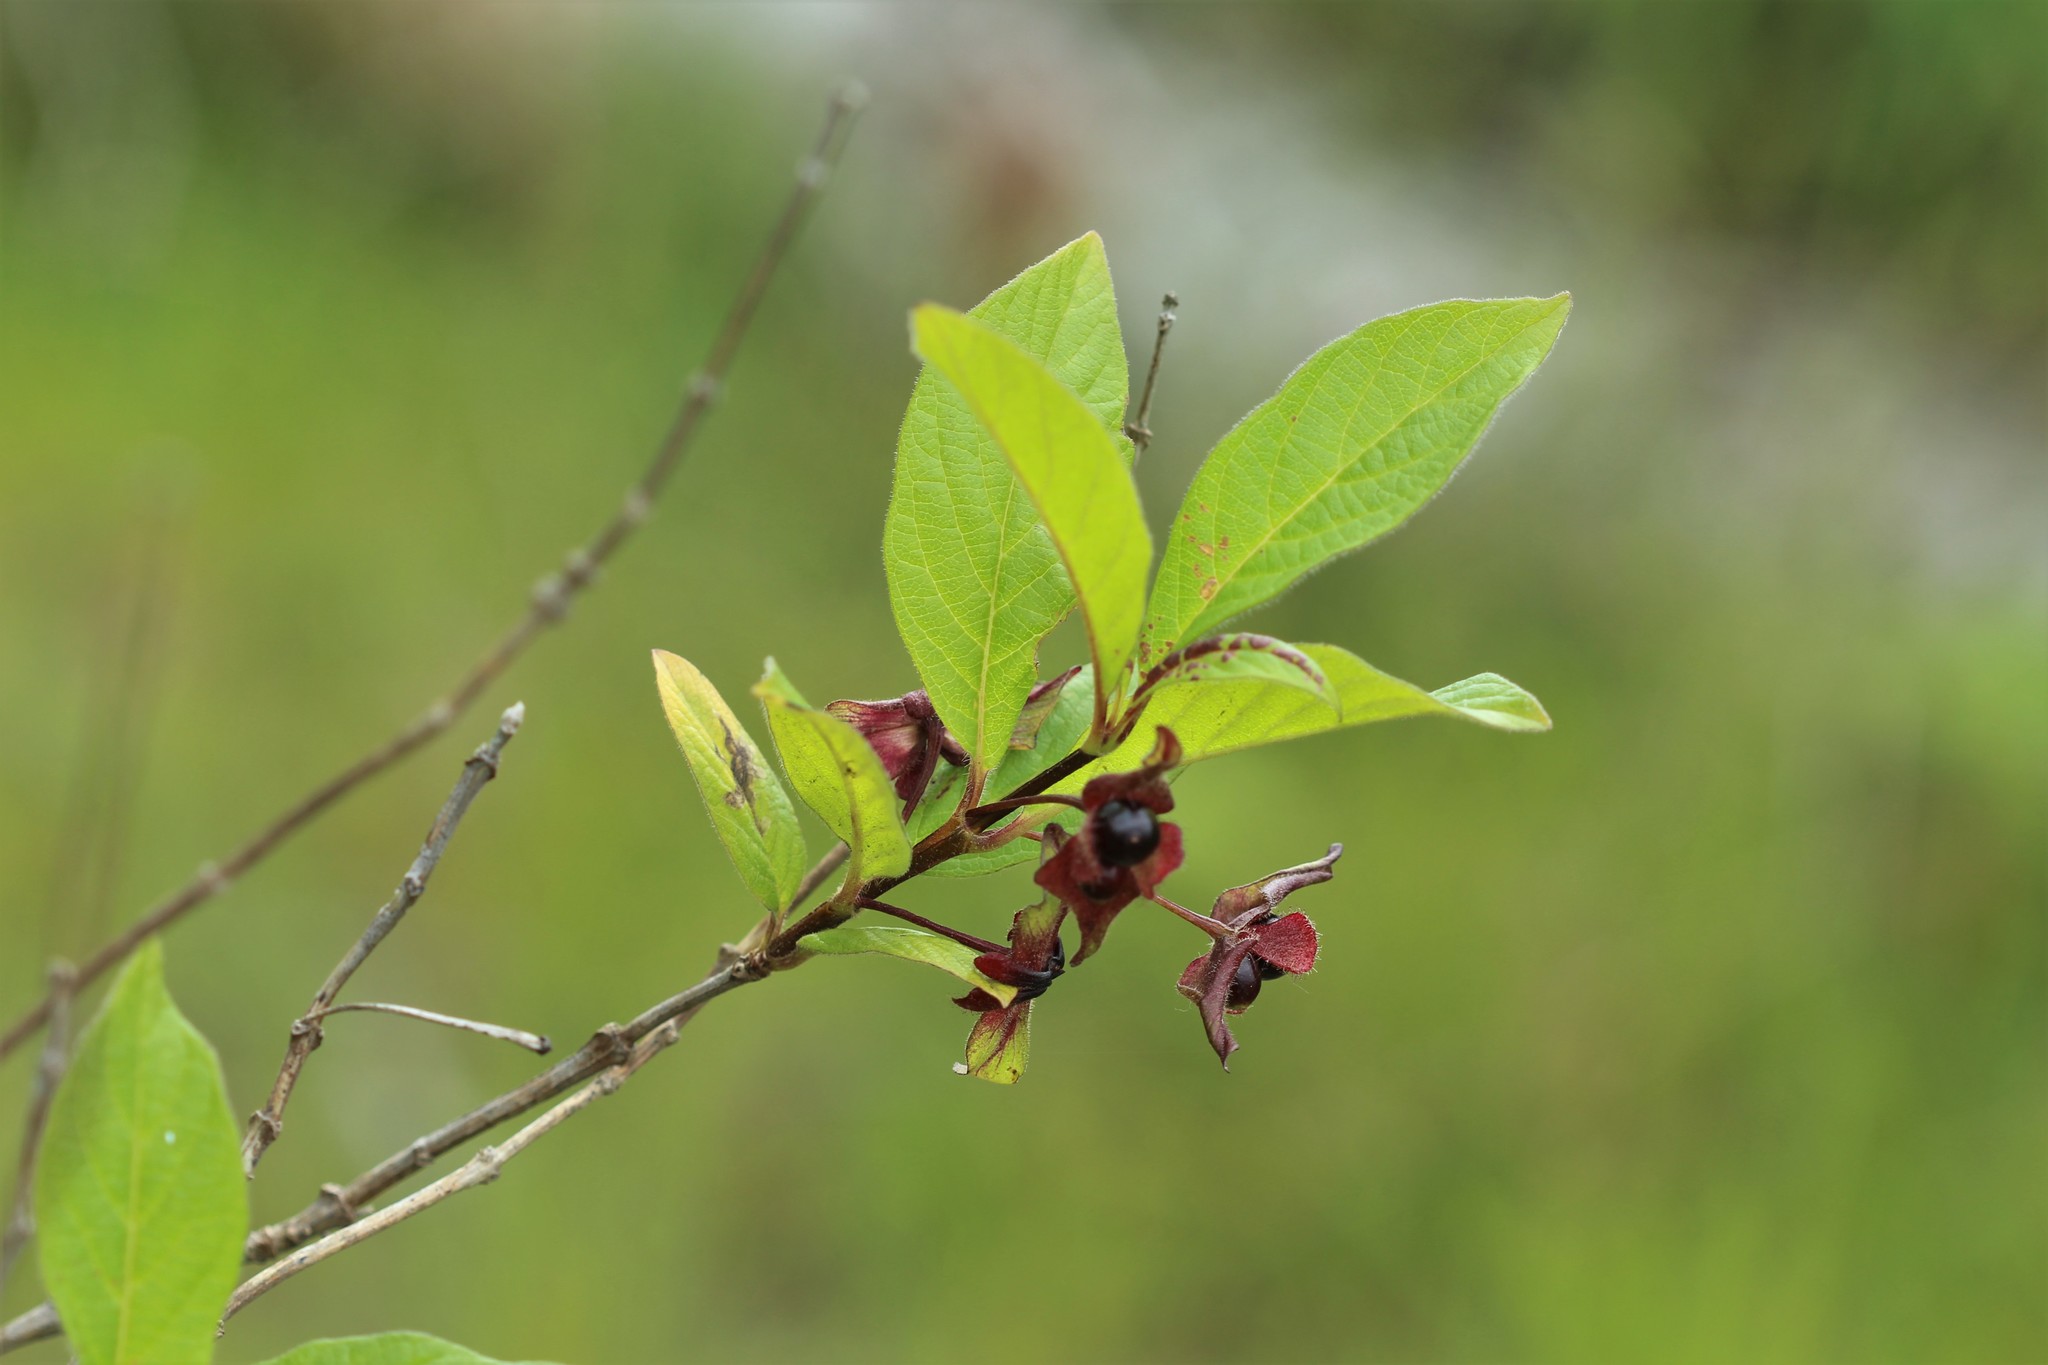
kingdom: Plantae
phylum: Tracheophyta
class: Magnoliopsida
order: Dipsacales
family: Caprifoliaceae
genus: Lonicera
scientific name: Lonicera involucrata
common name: Californian honeysuckle
